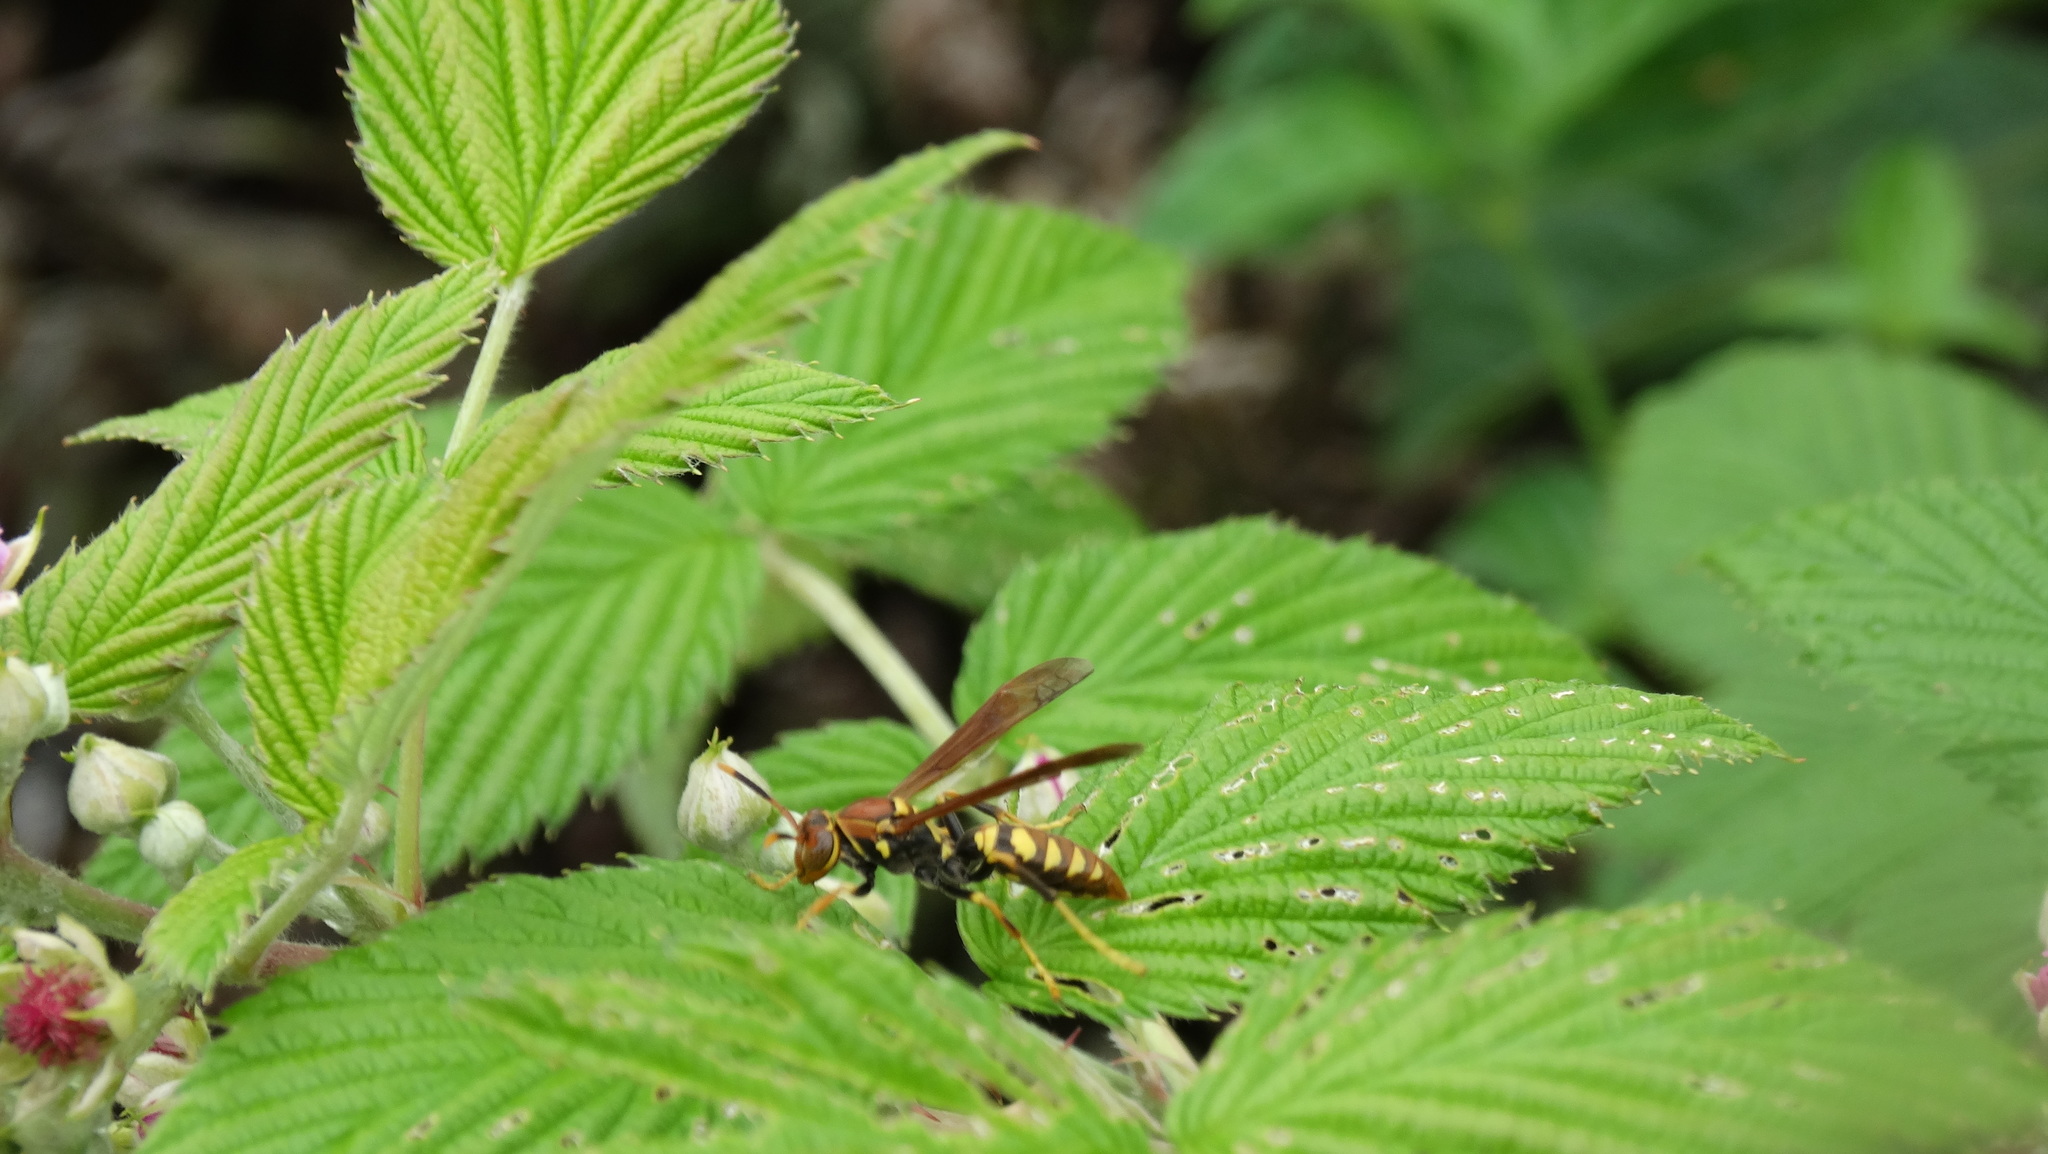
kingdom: Animalia
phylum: Arthropoda
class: Insecta
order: Hymenoptera
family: Eumenidae
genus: Polistes
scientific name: Polistes versicolor
